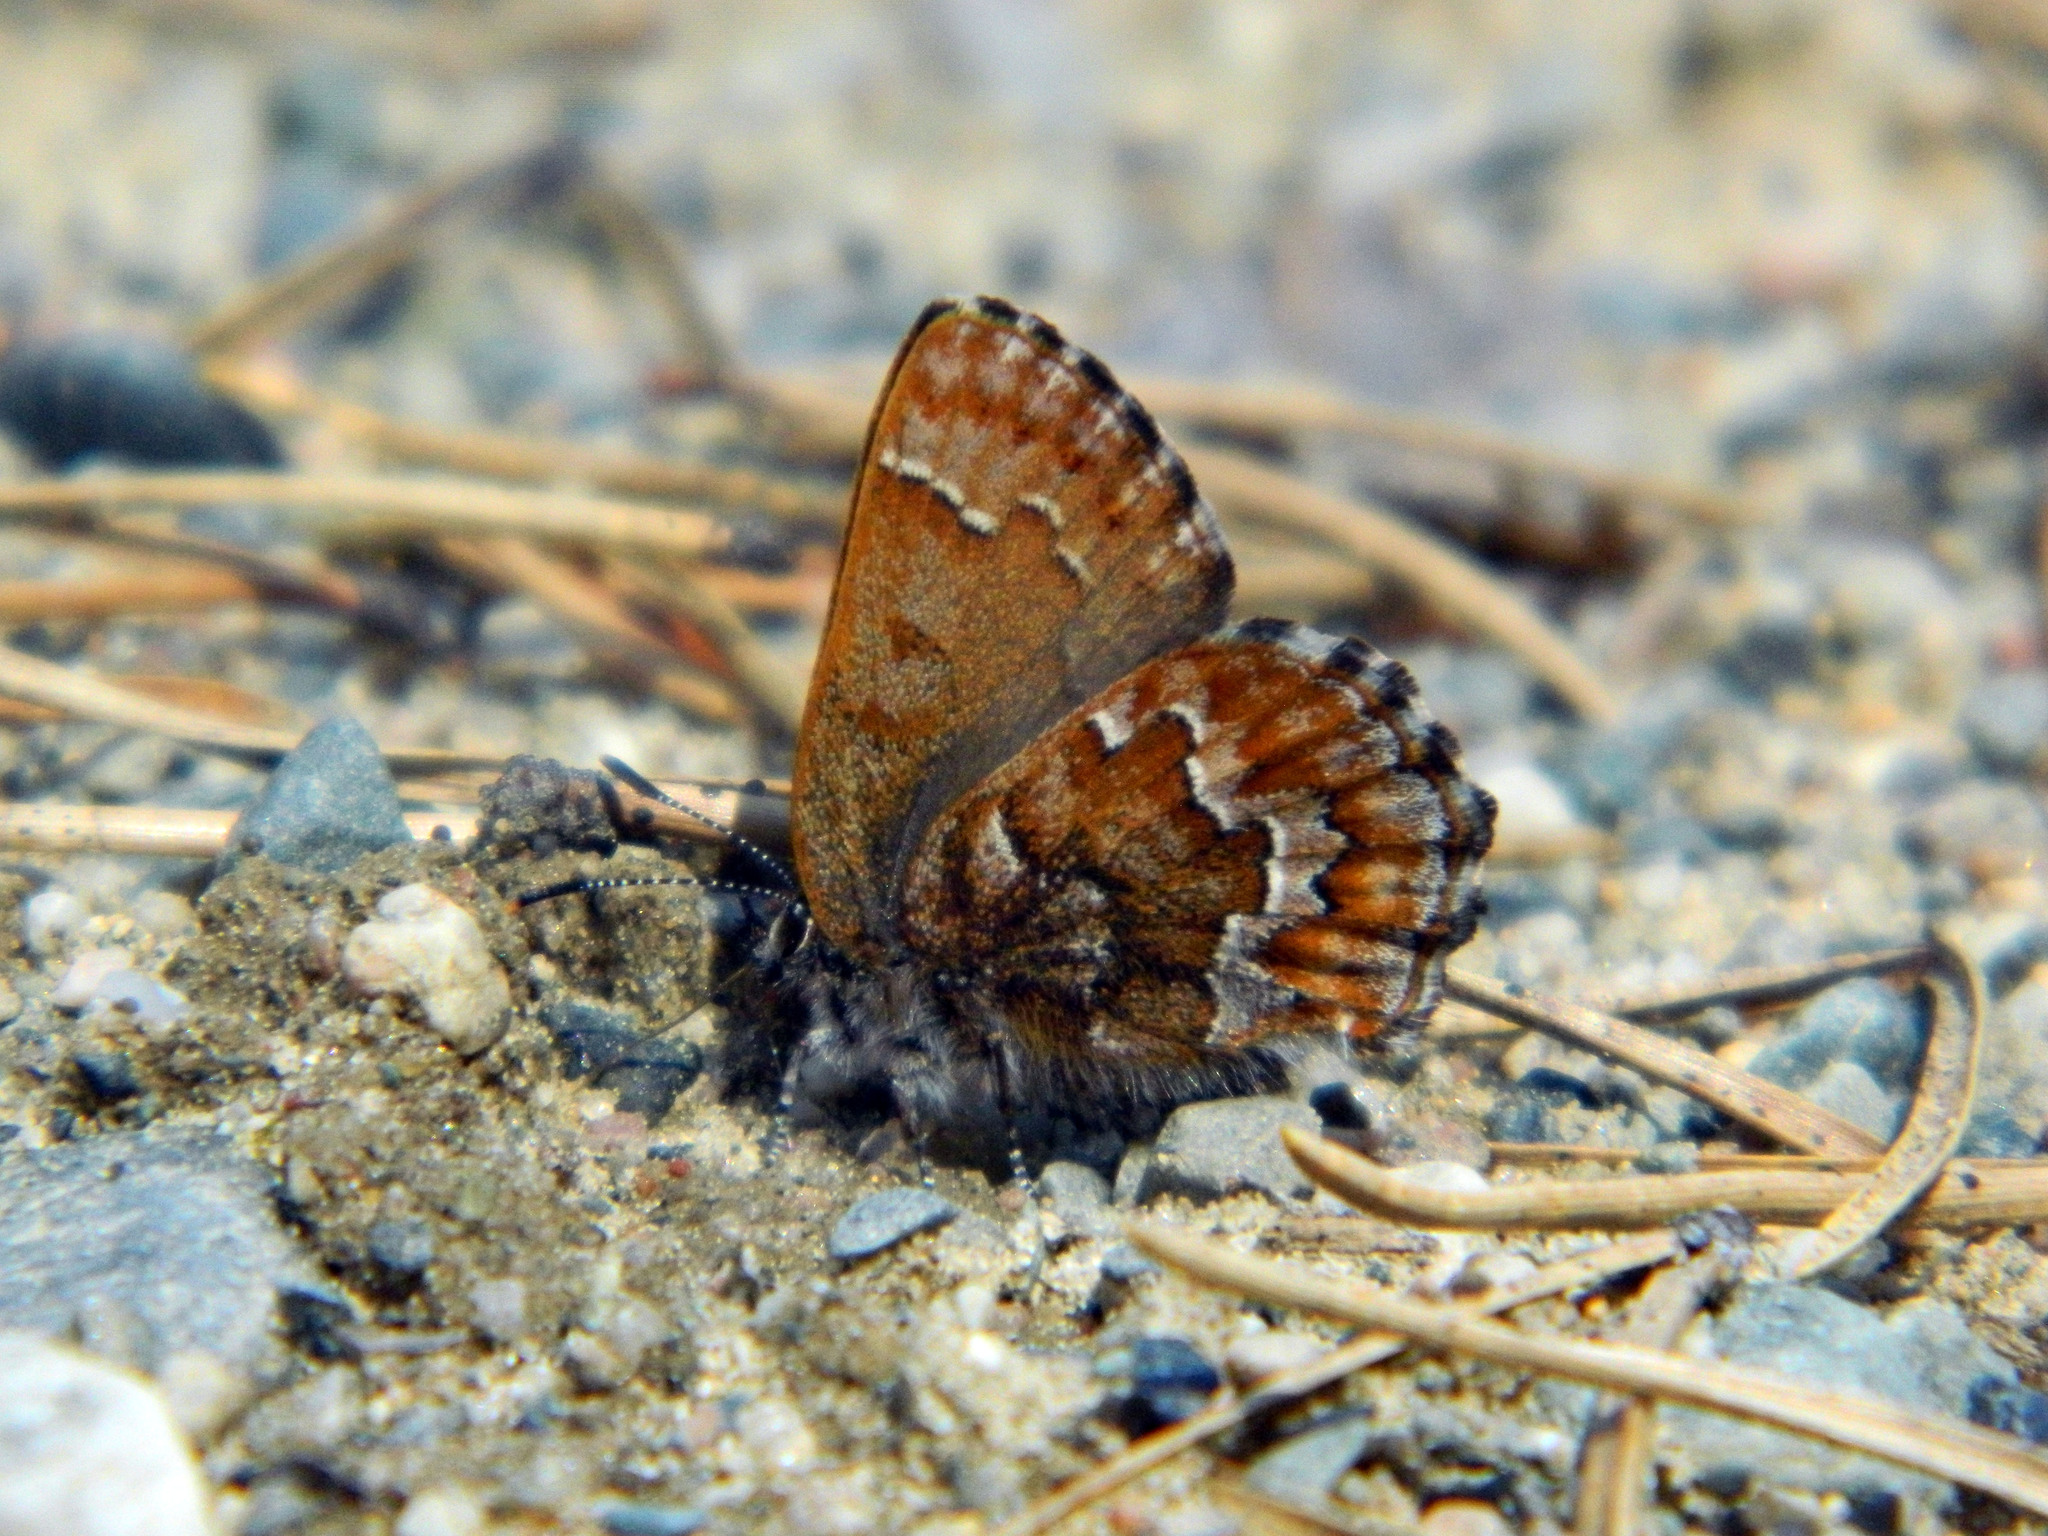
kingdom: Animalia
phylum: Arthropoda
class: Insecta
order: Lepidoptera
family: Lycaenidae
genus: Incisalia
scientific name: Incisalia niphon
